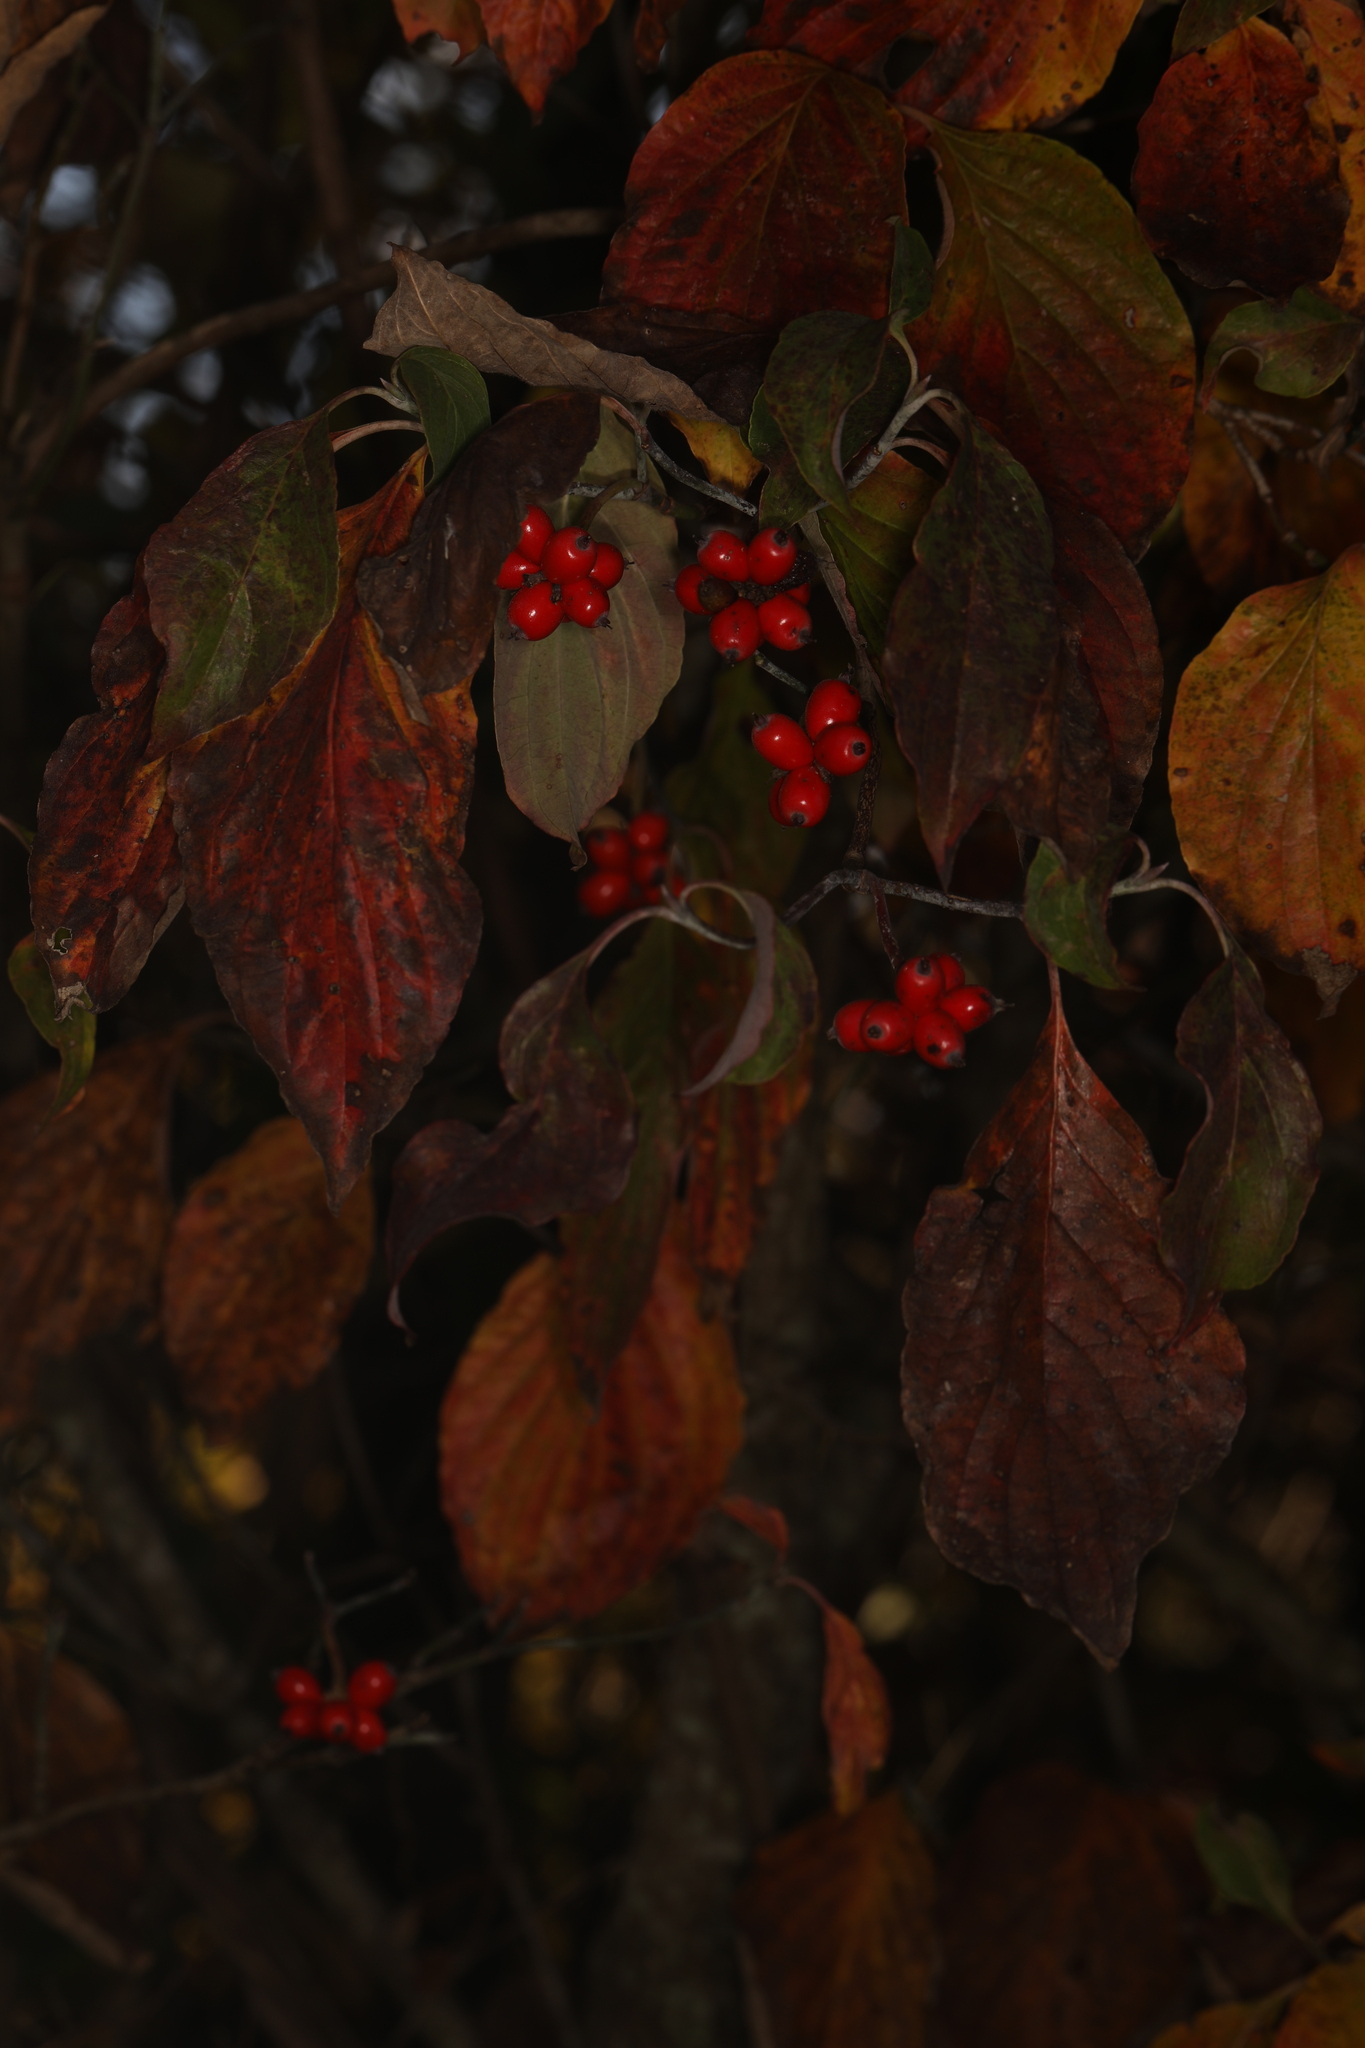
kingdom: Plantae
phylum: Tracheophyta
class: Magnoliopsida
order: Cornales
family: Cornaceae
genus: Cornus
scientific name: Cornus florida
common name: Flowering dogwood
